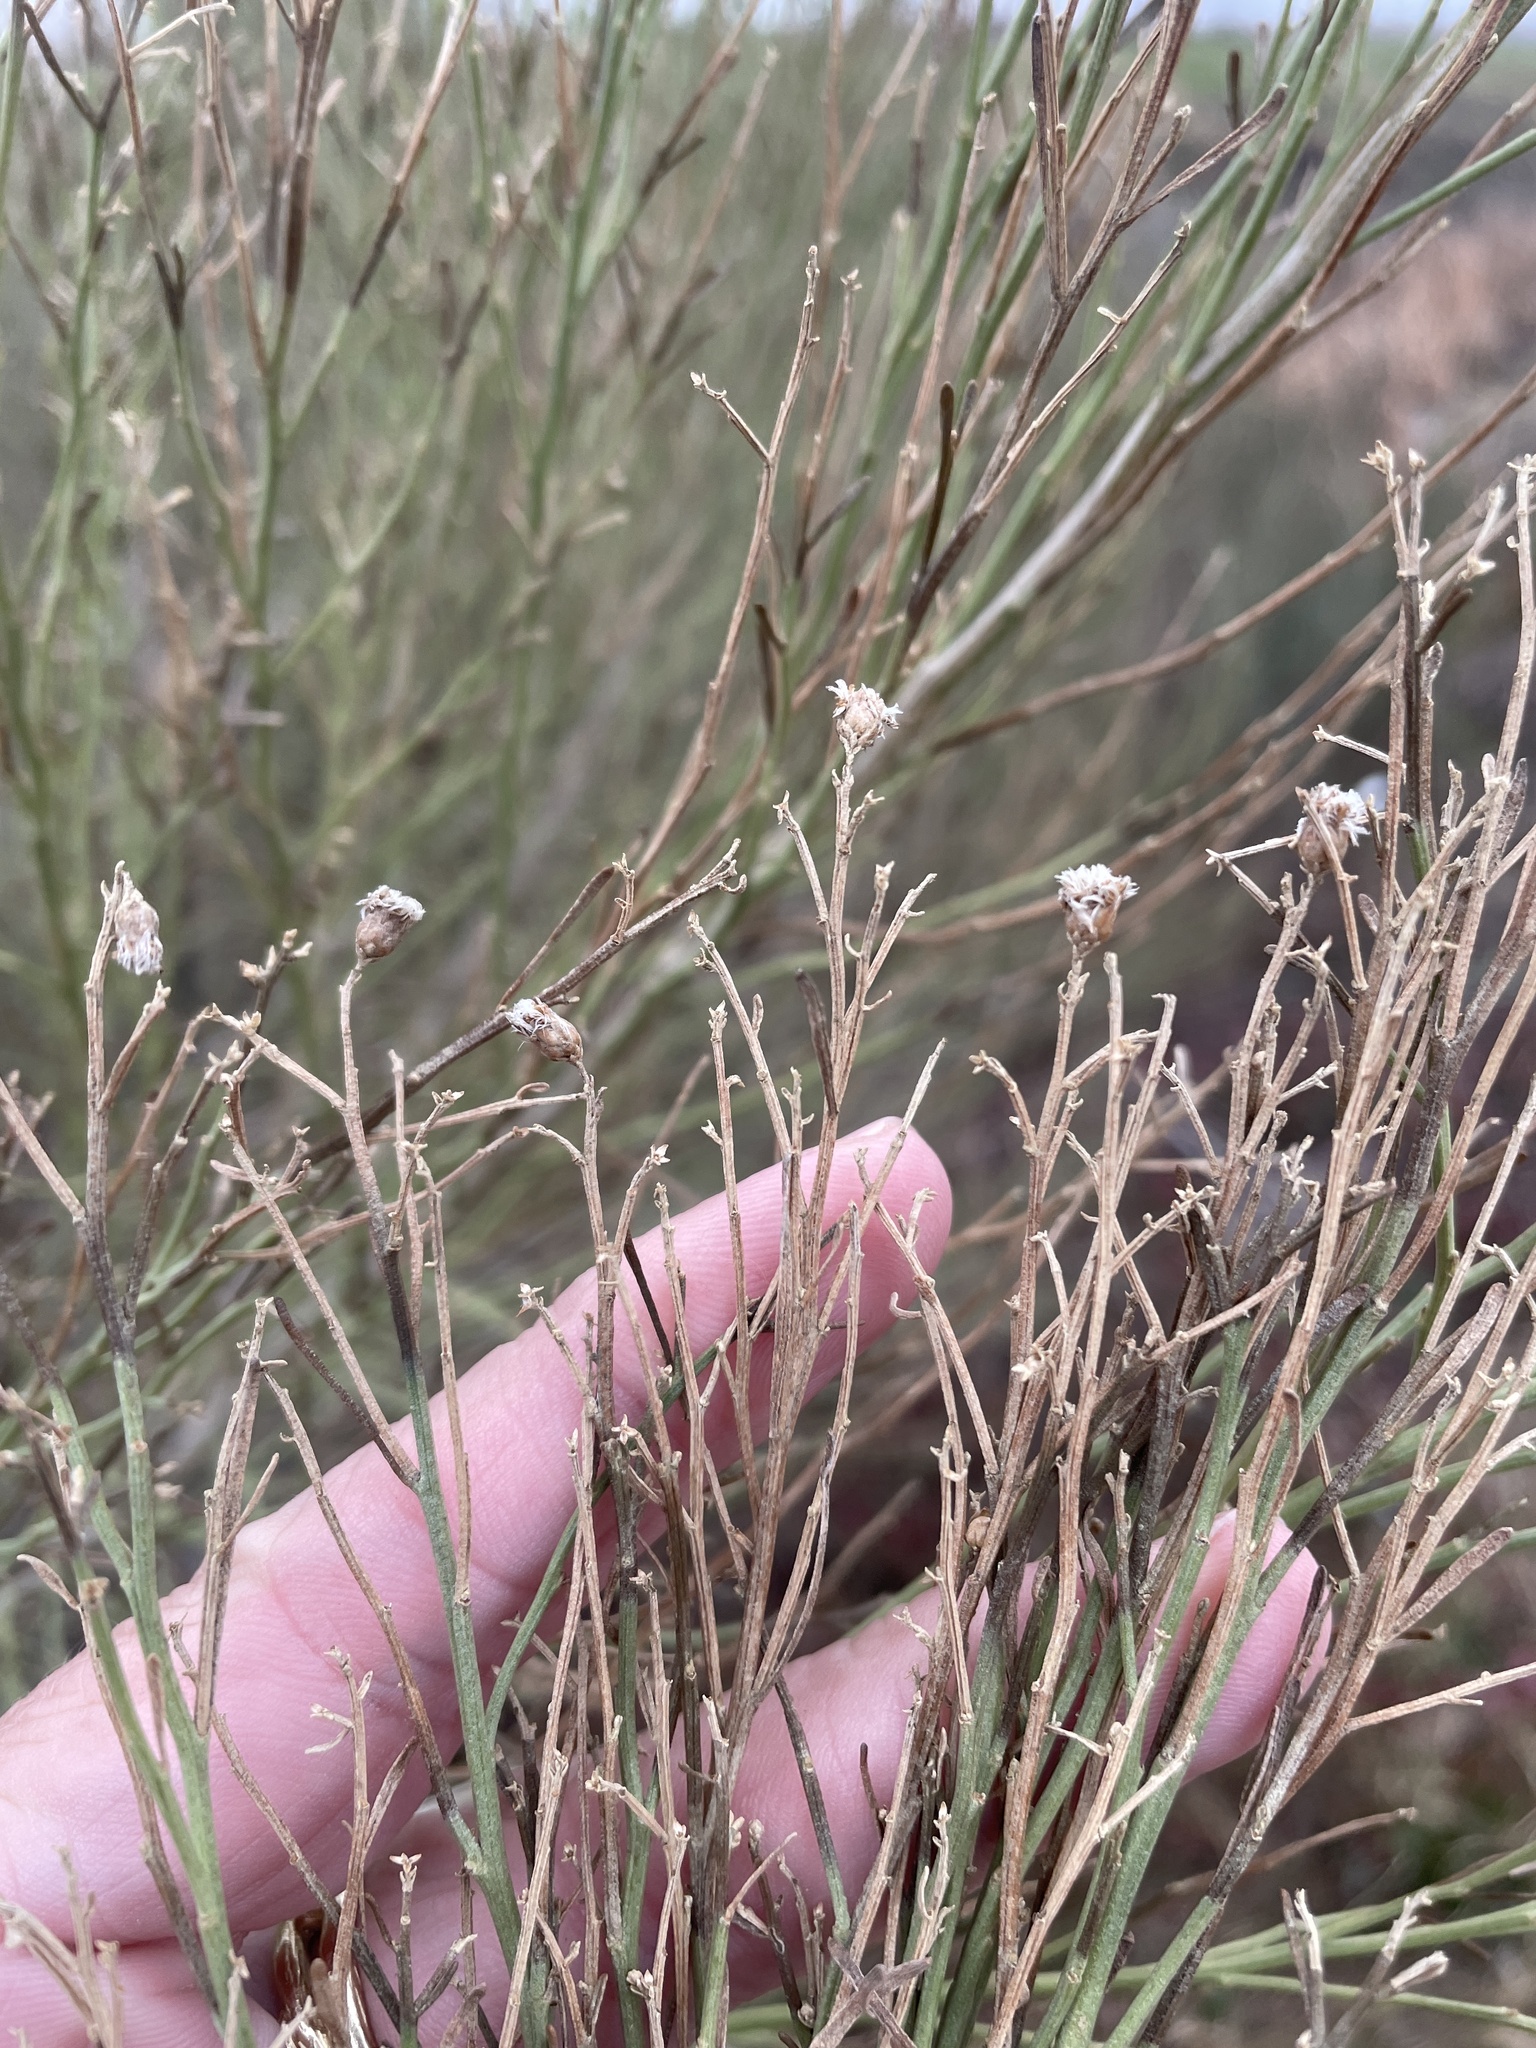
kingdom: Plantae
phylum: Tracheophyta
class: Magnoliopsida
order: Asterales
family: Asteraceae
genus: Baccharis
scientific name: Baccharis neglecta
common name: Roosevelt-weed
